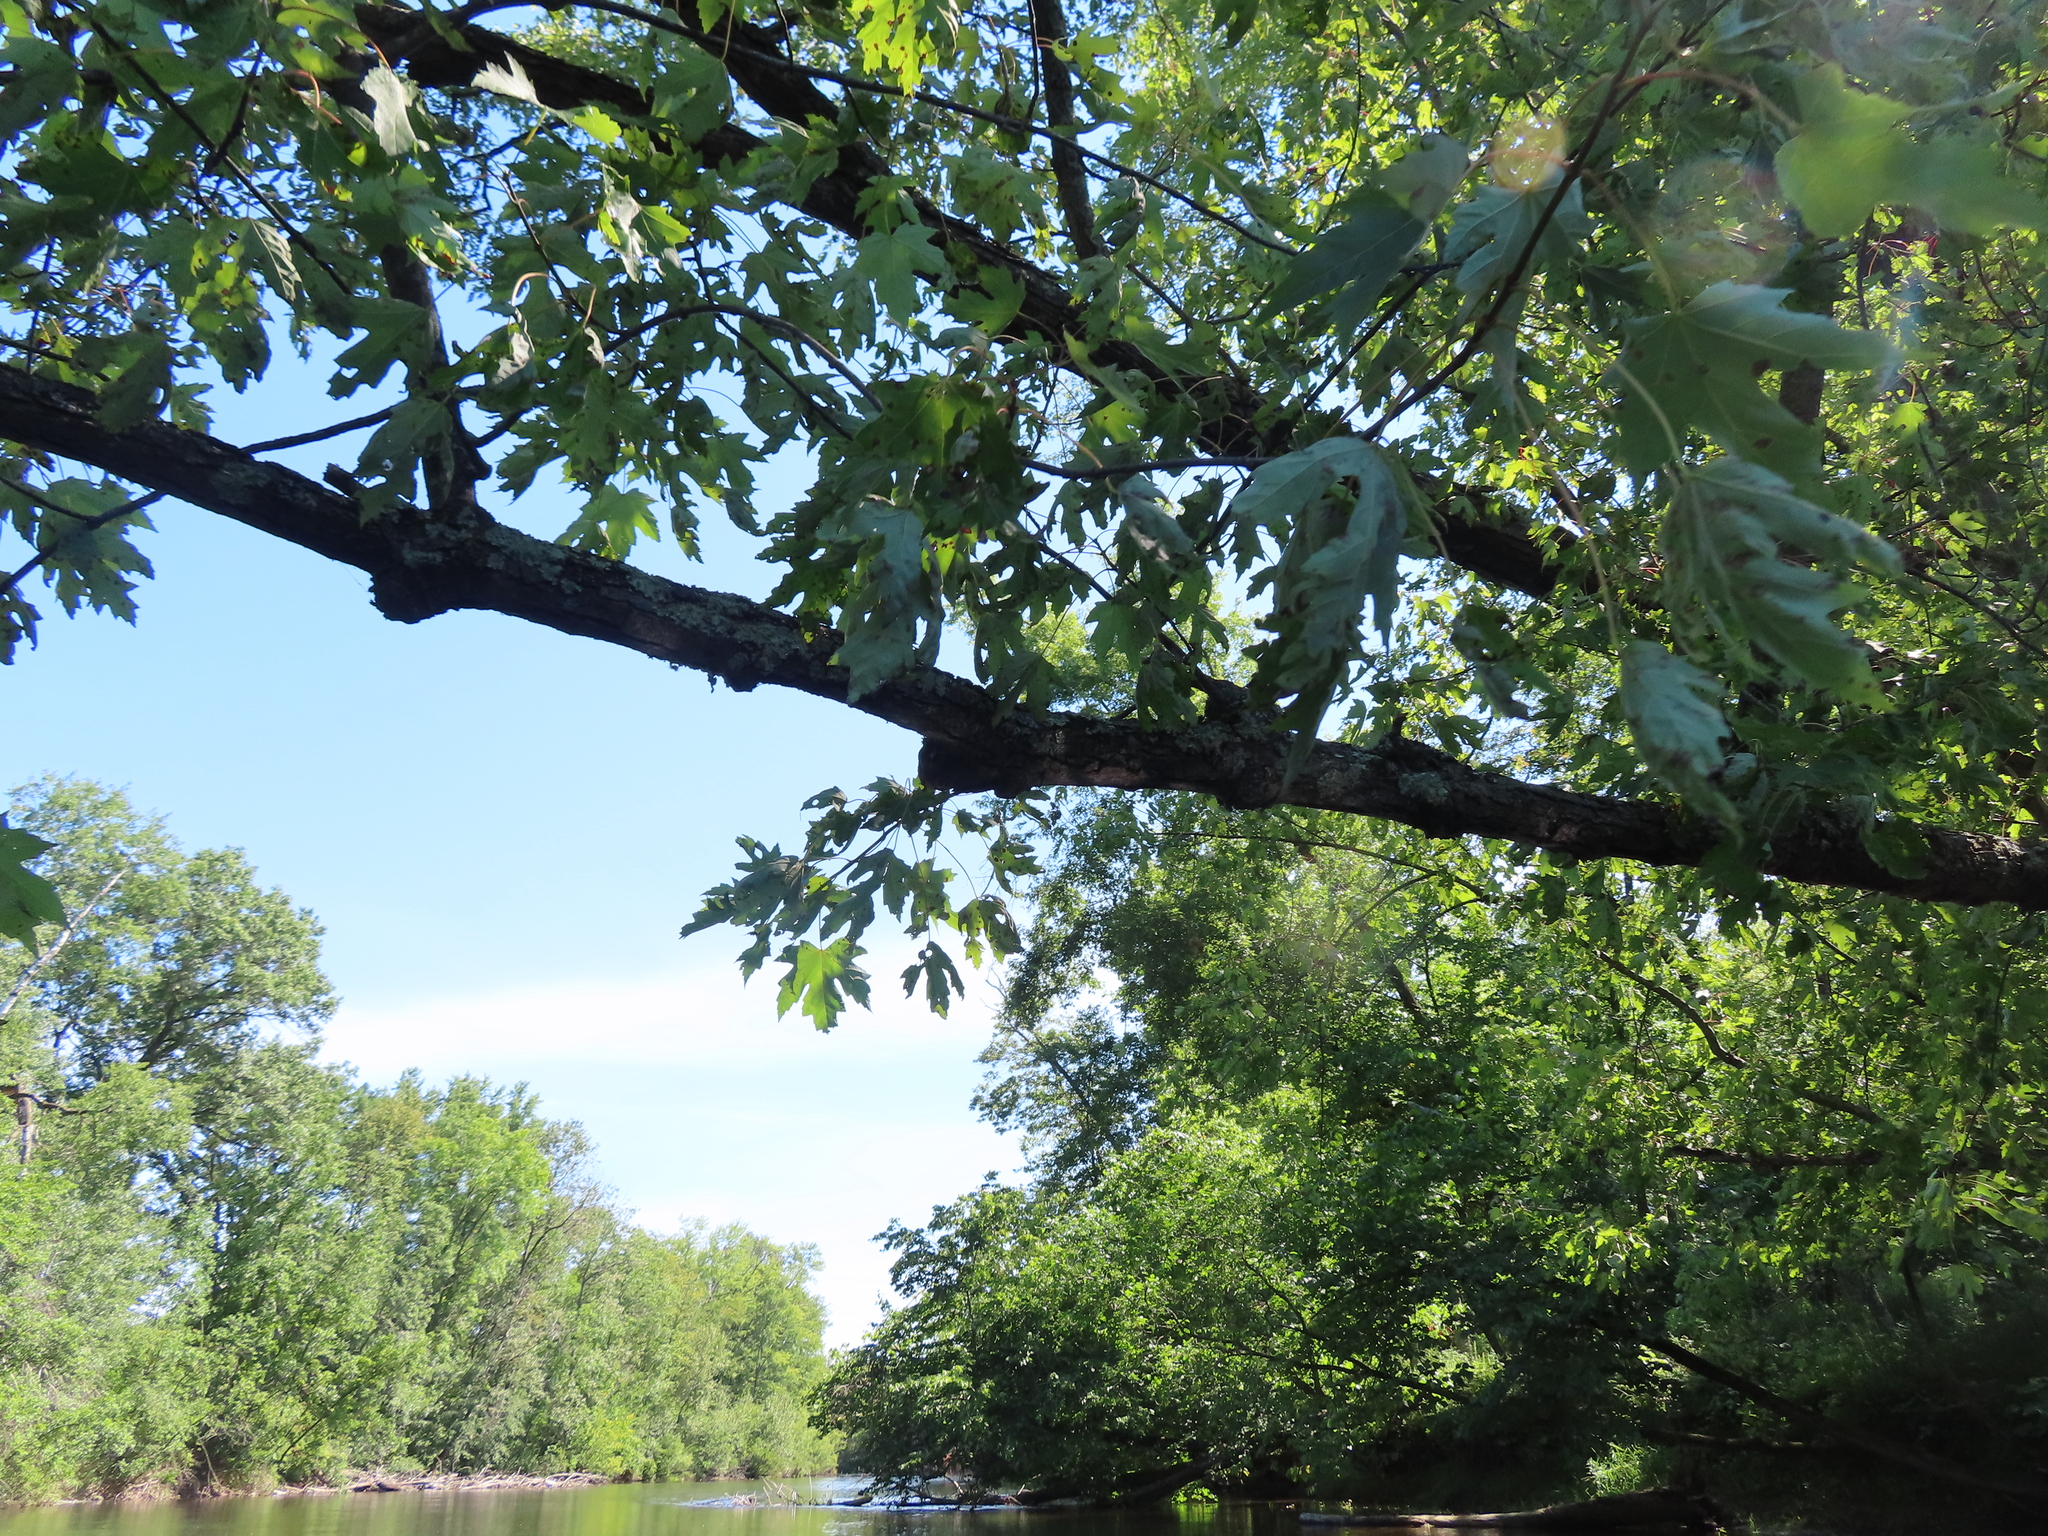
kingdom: Plantae
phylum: Tracheophyta
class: Magnoliopsida
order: Sapindales
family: Sapindaceae
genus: Acer
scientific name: Acer saccharinum
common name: Silver maple
